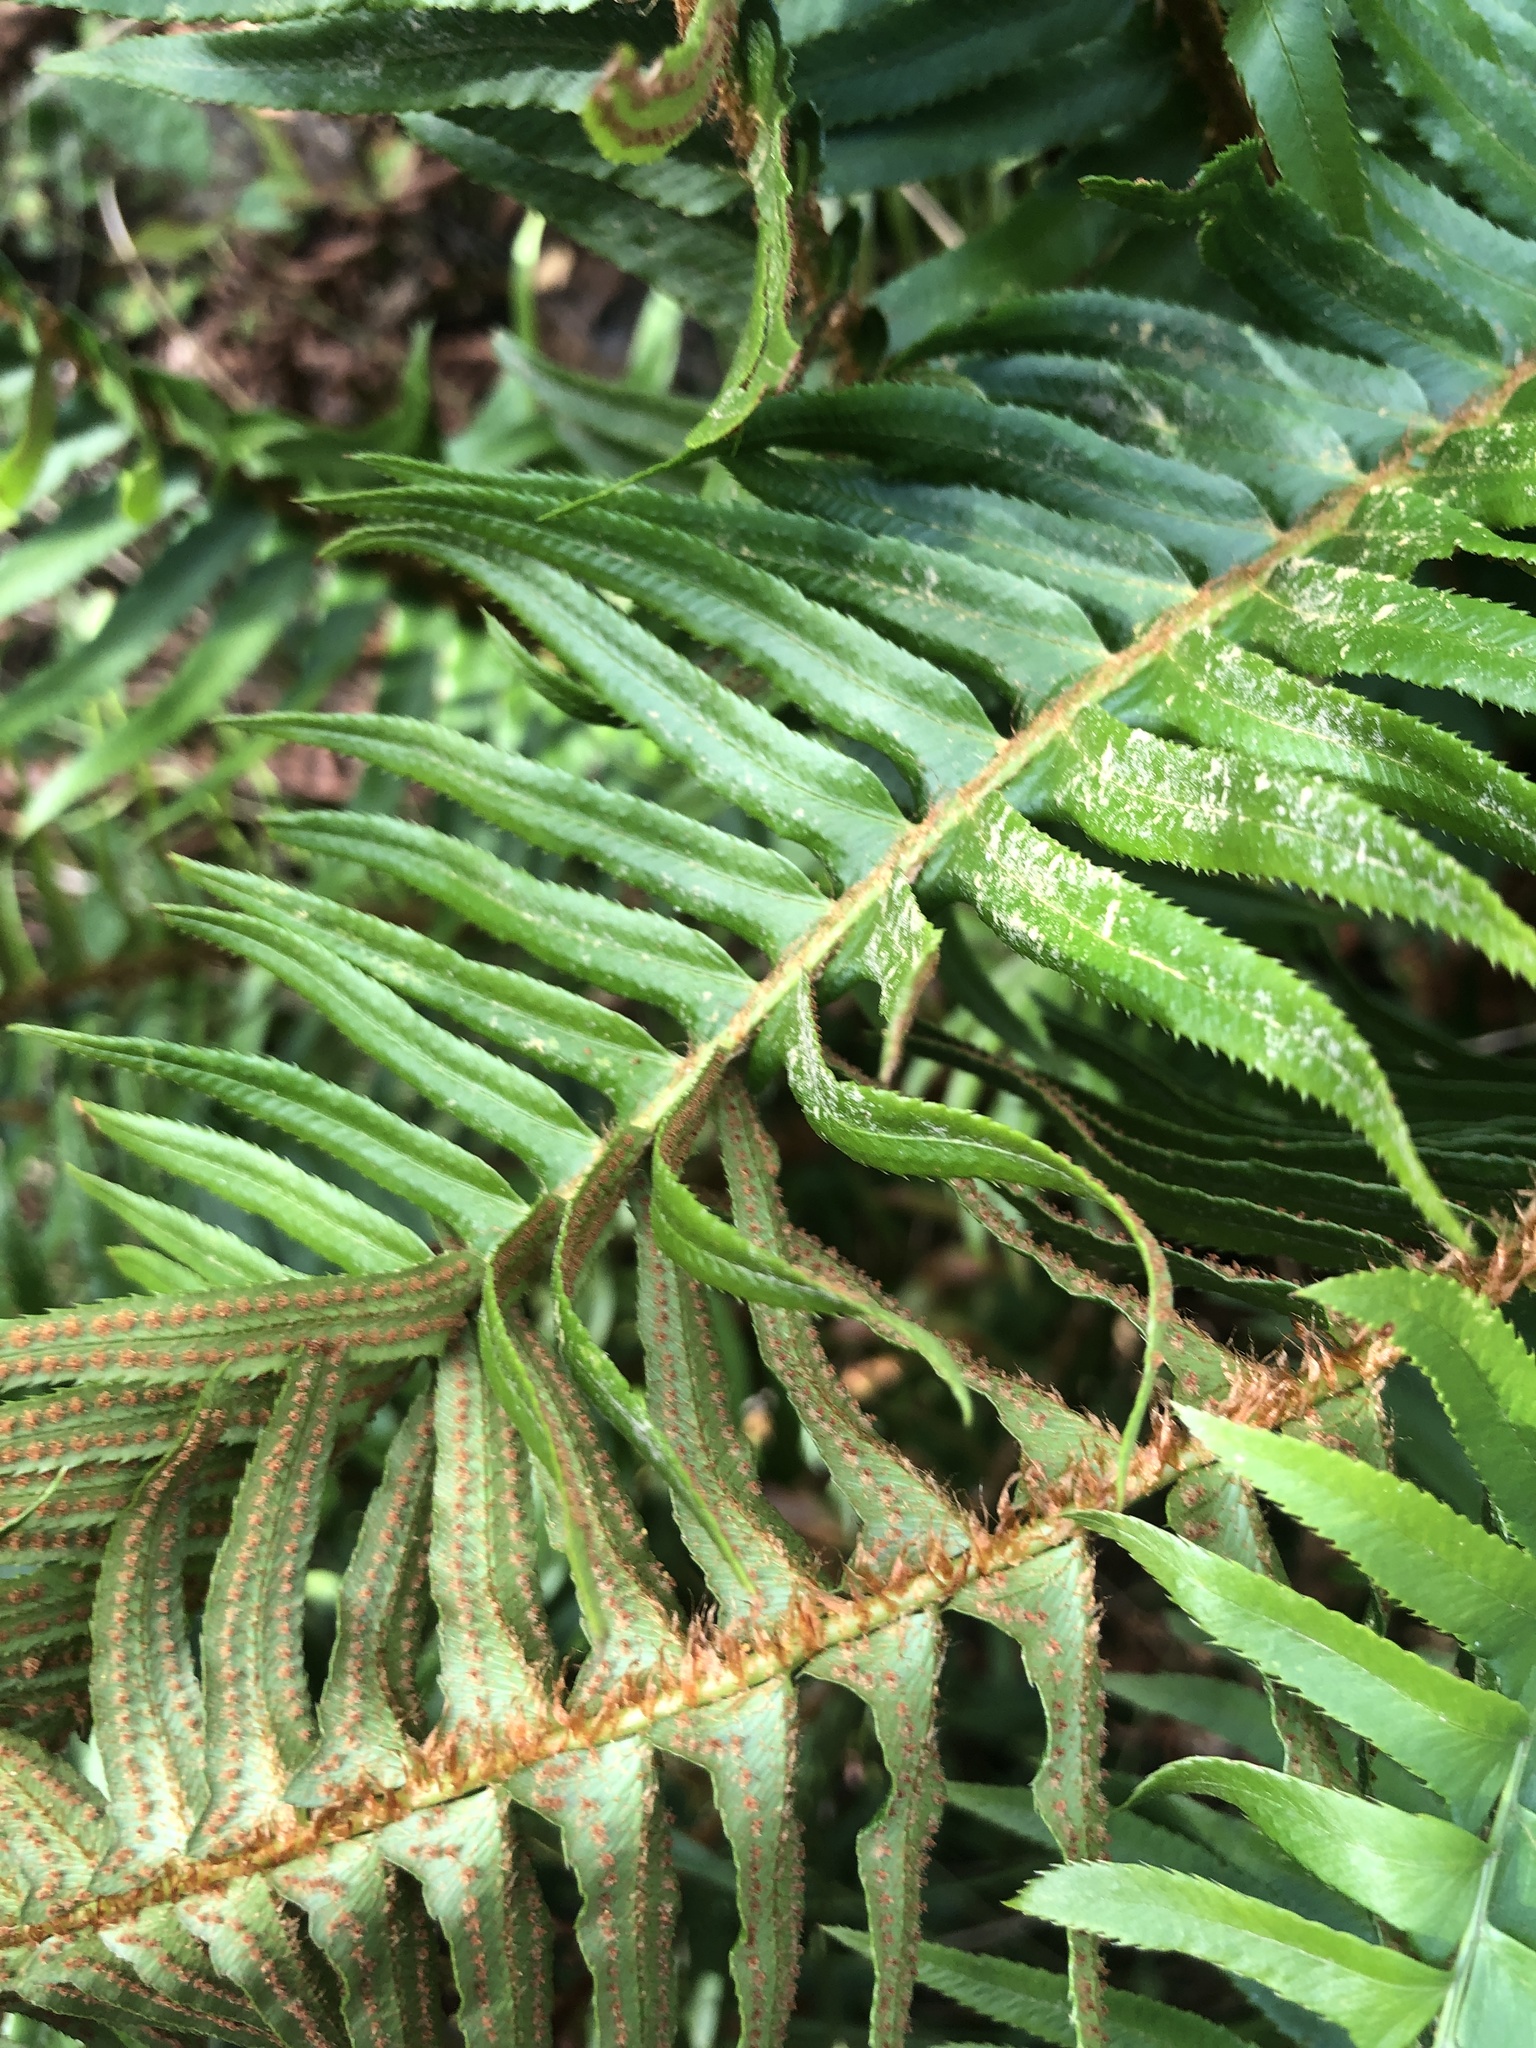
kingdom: Plantae
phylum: Tracheophyta
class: Polypodiopsida
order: Polypodiales
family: Dryopteridaceae
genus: Polystichum
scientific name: Polystichum munitum
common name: Western sword-fern
